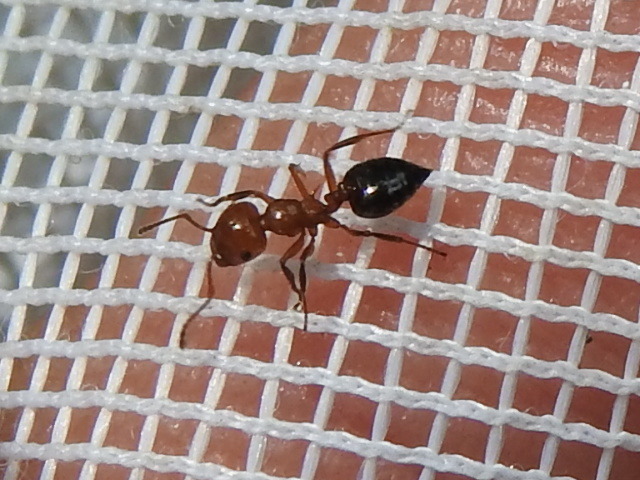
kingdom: Animalia
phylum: Arthropoda
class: Insecta
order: Hymenoptera
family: Formicidae
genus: Crematogaster
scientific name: Crematogaster laeviuscula
